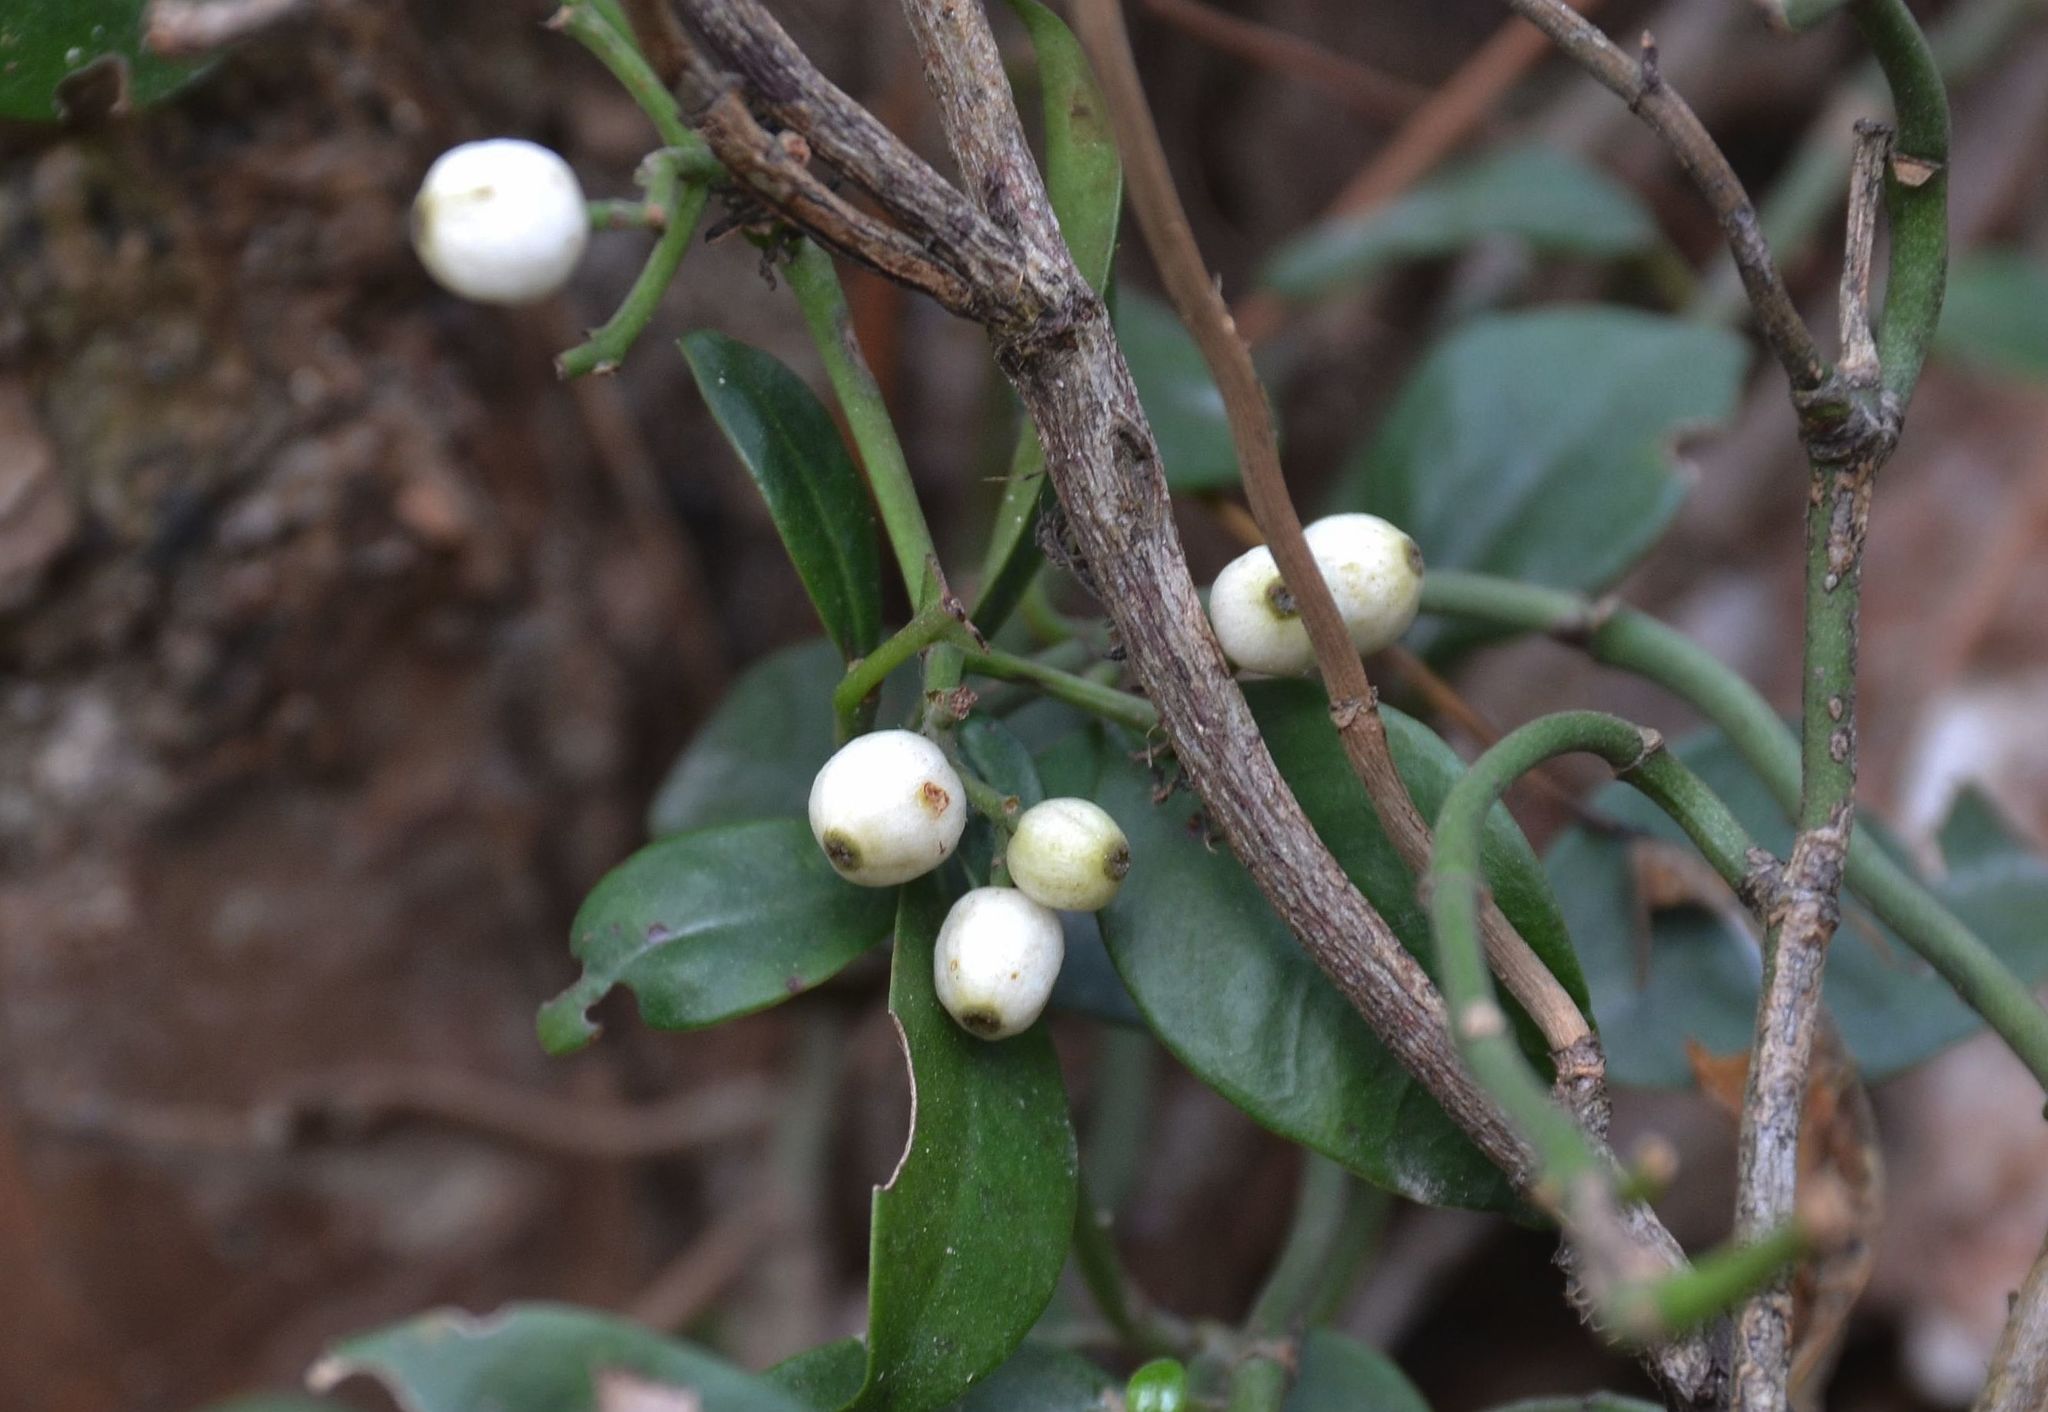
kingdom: Plantae
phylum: Tracheophyta
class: Magnoliopsida
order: Gentianales
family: Rubiaceae
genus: Psychotria
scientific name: Psychotria serpens
